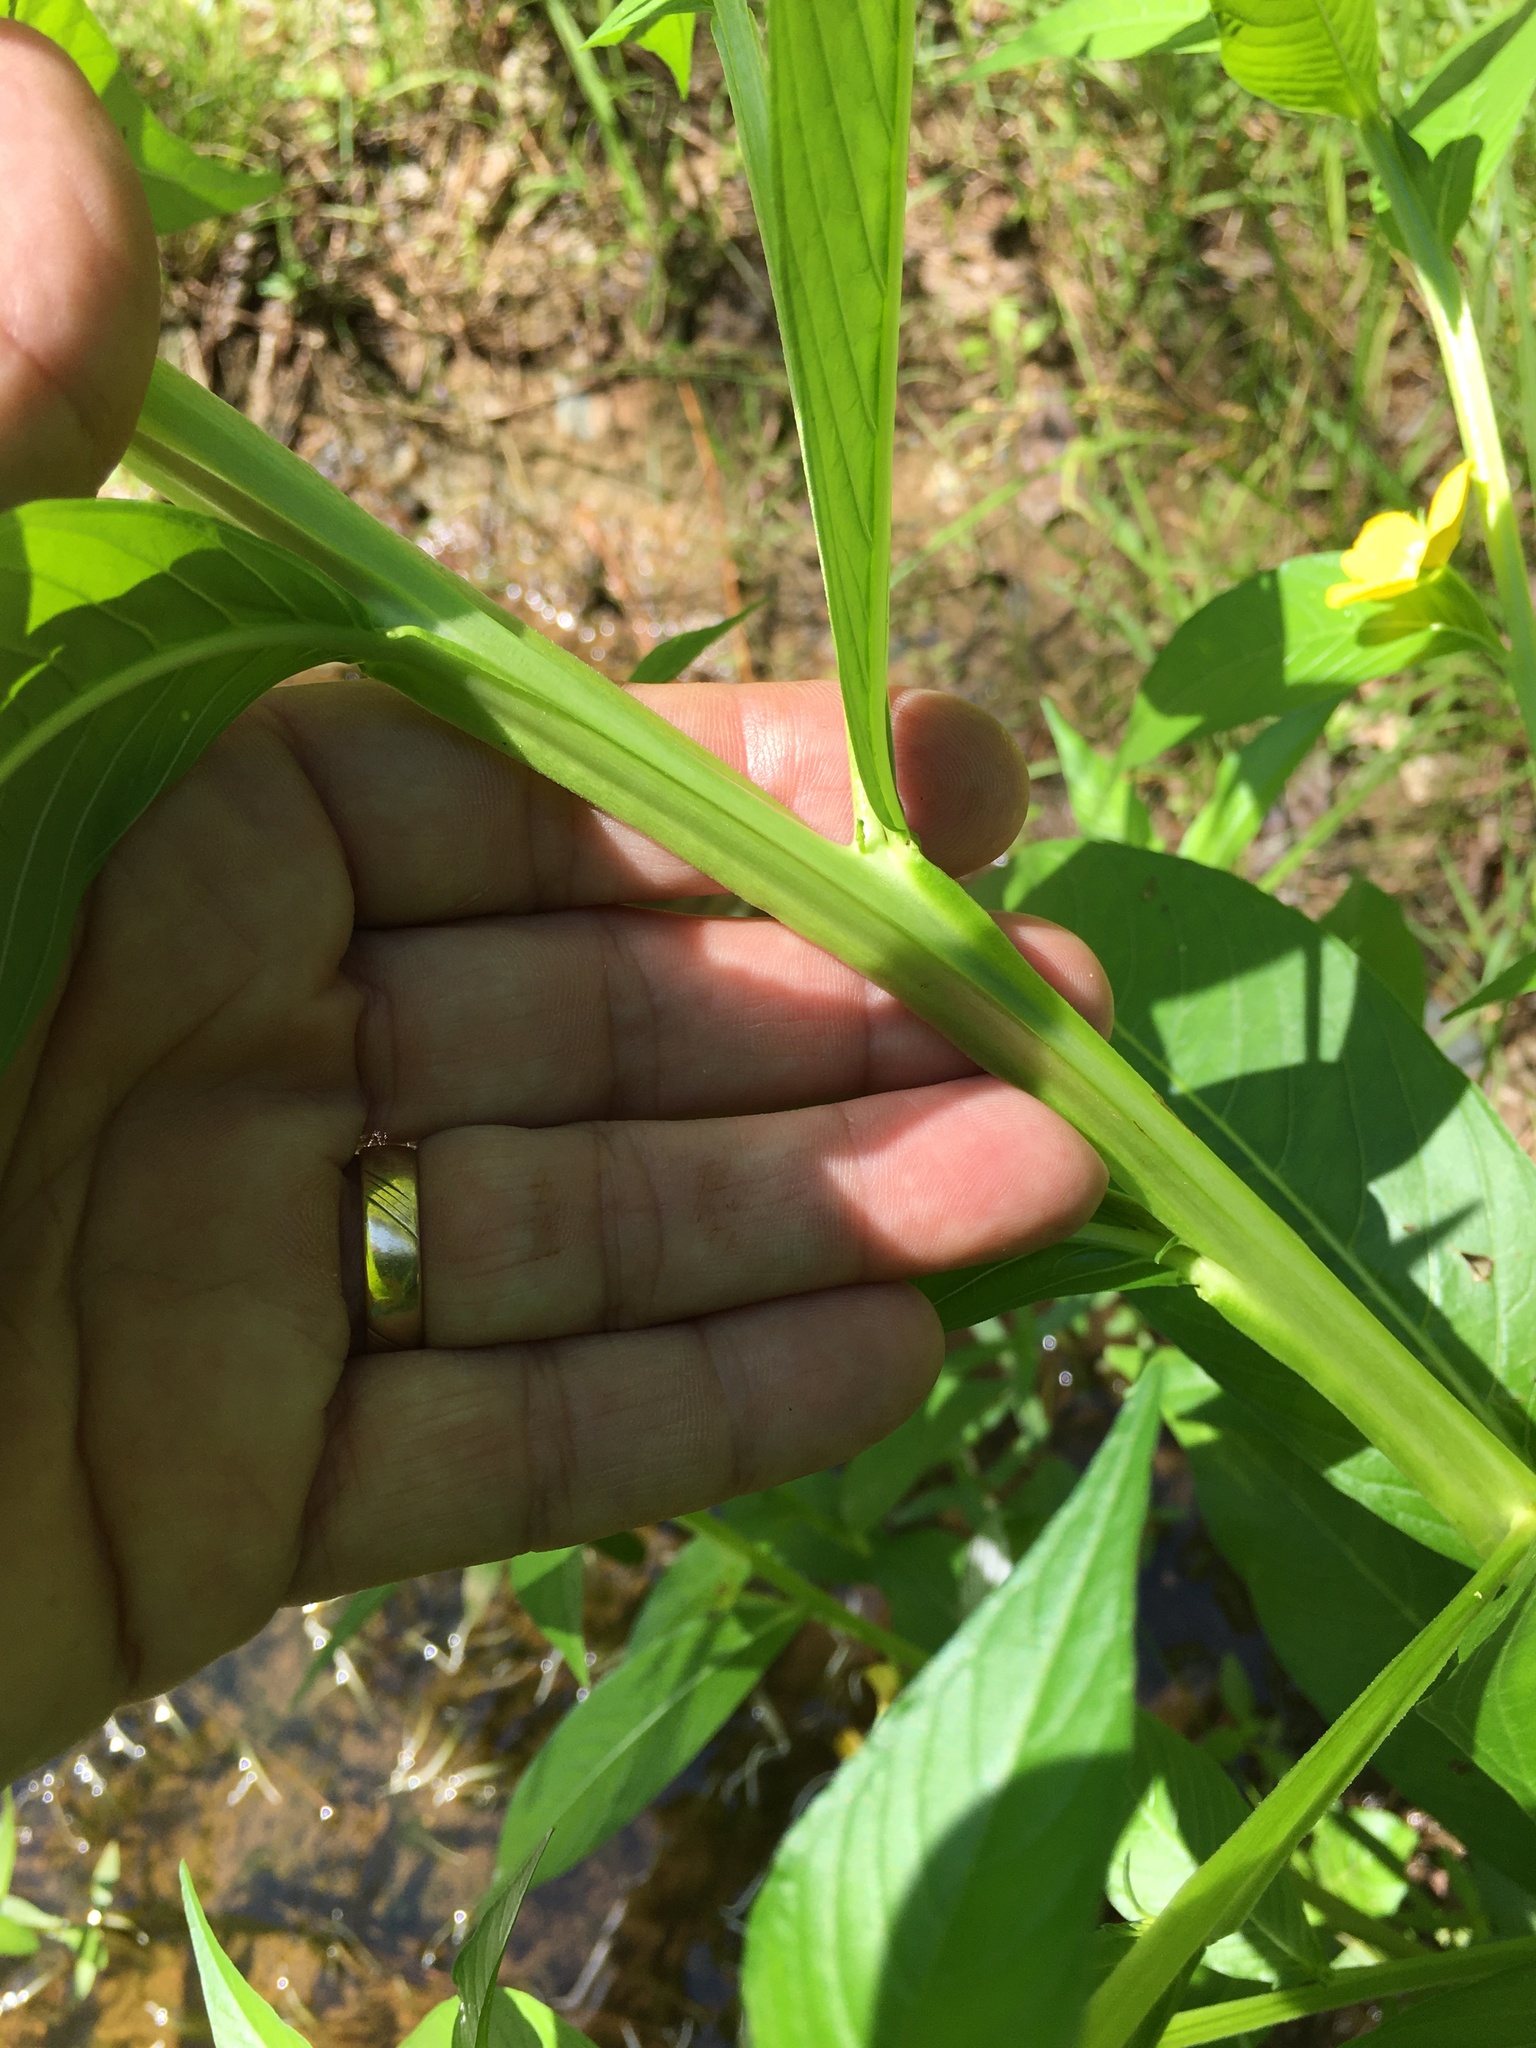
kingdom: Plantae
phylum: Tracheophyta
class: Magnoliopsida
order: Myrtales
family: Onagraceae
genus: Ludwigia
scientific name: Ludwigia decurrens
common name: Winged water-primrose
